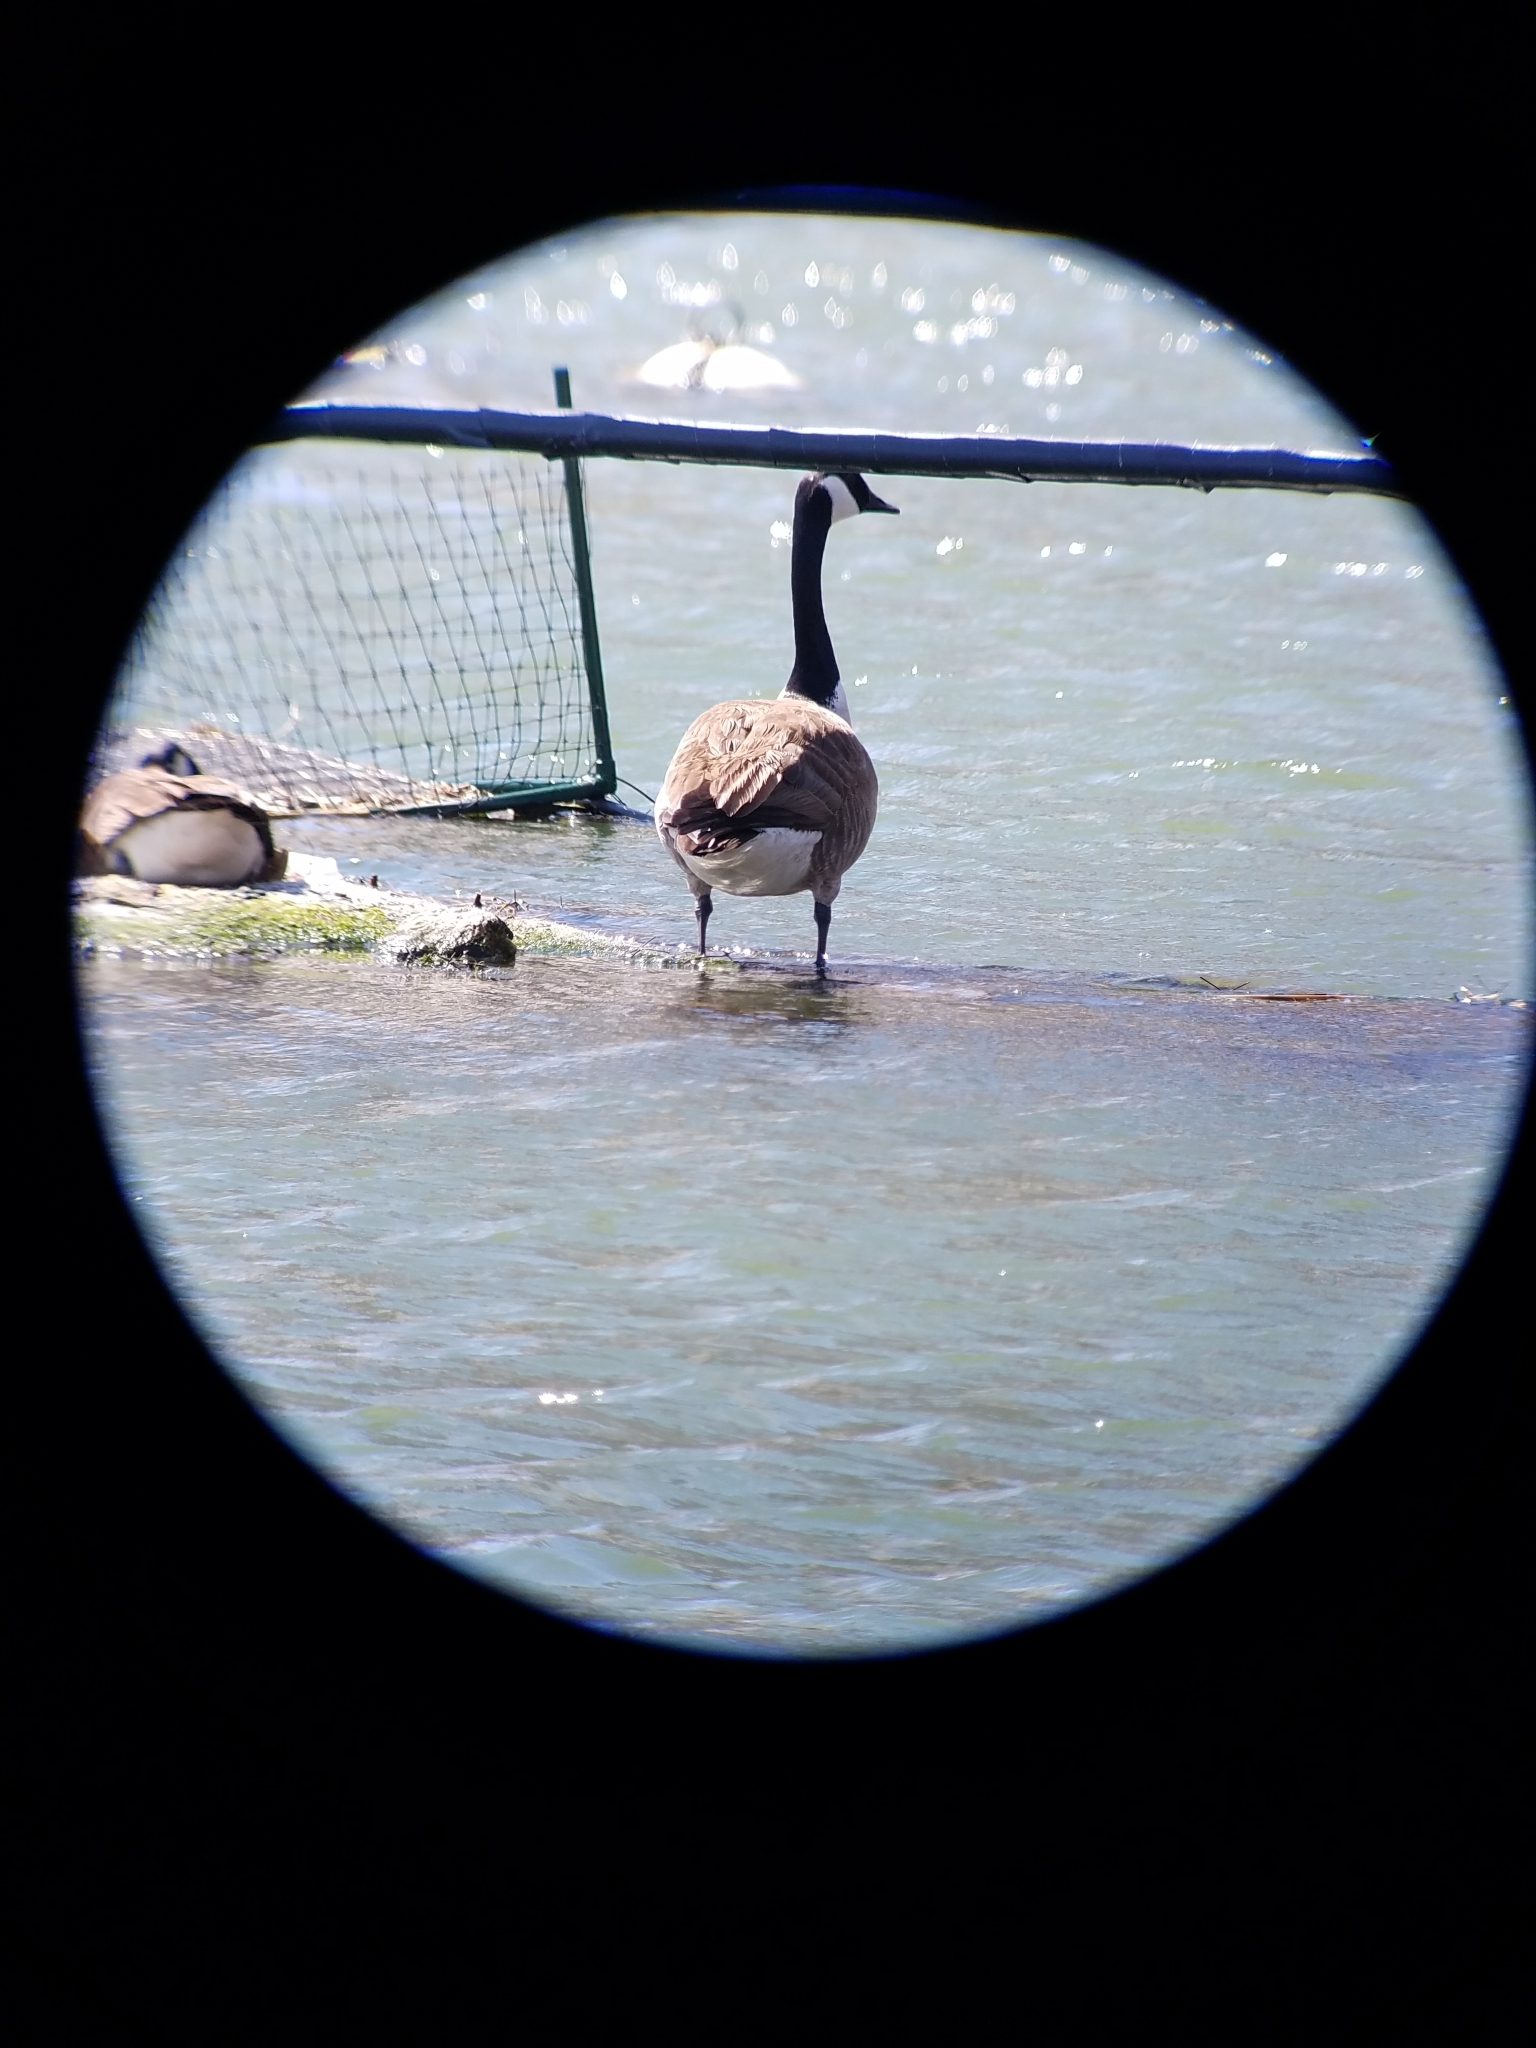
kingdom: Animalia
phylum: Chordata
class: Aves
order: Anseriformes
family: Anatidae
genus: Branta
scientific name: Branta canadensis
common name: Canada goose
